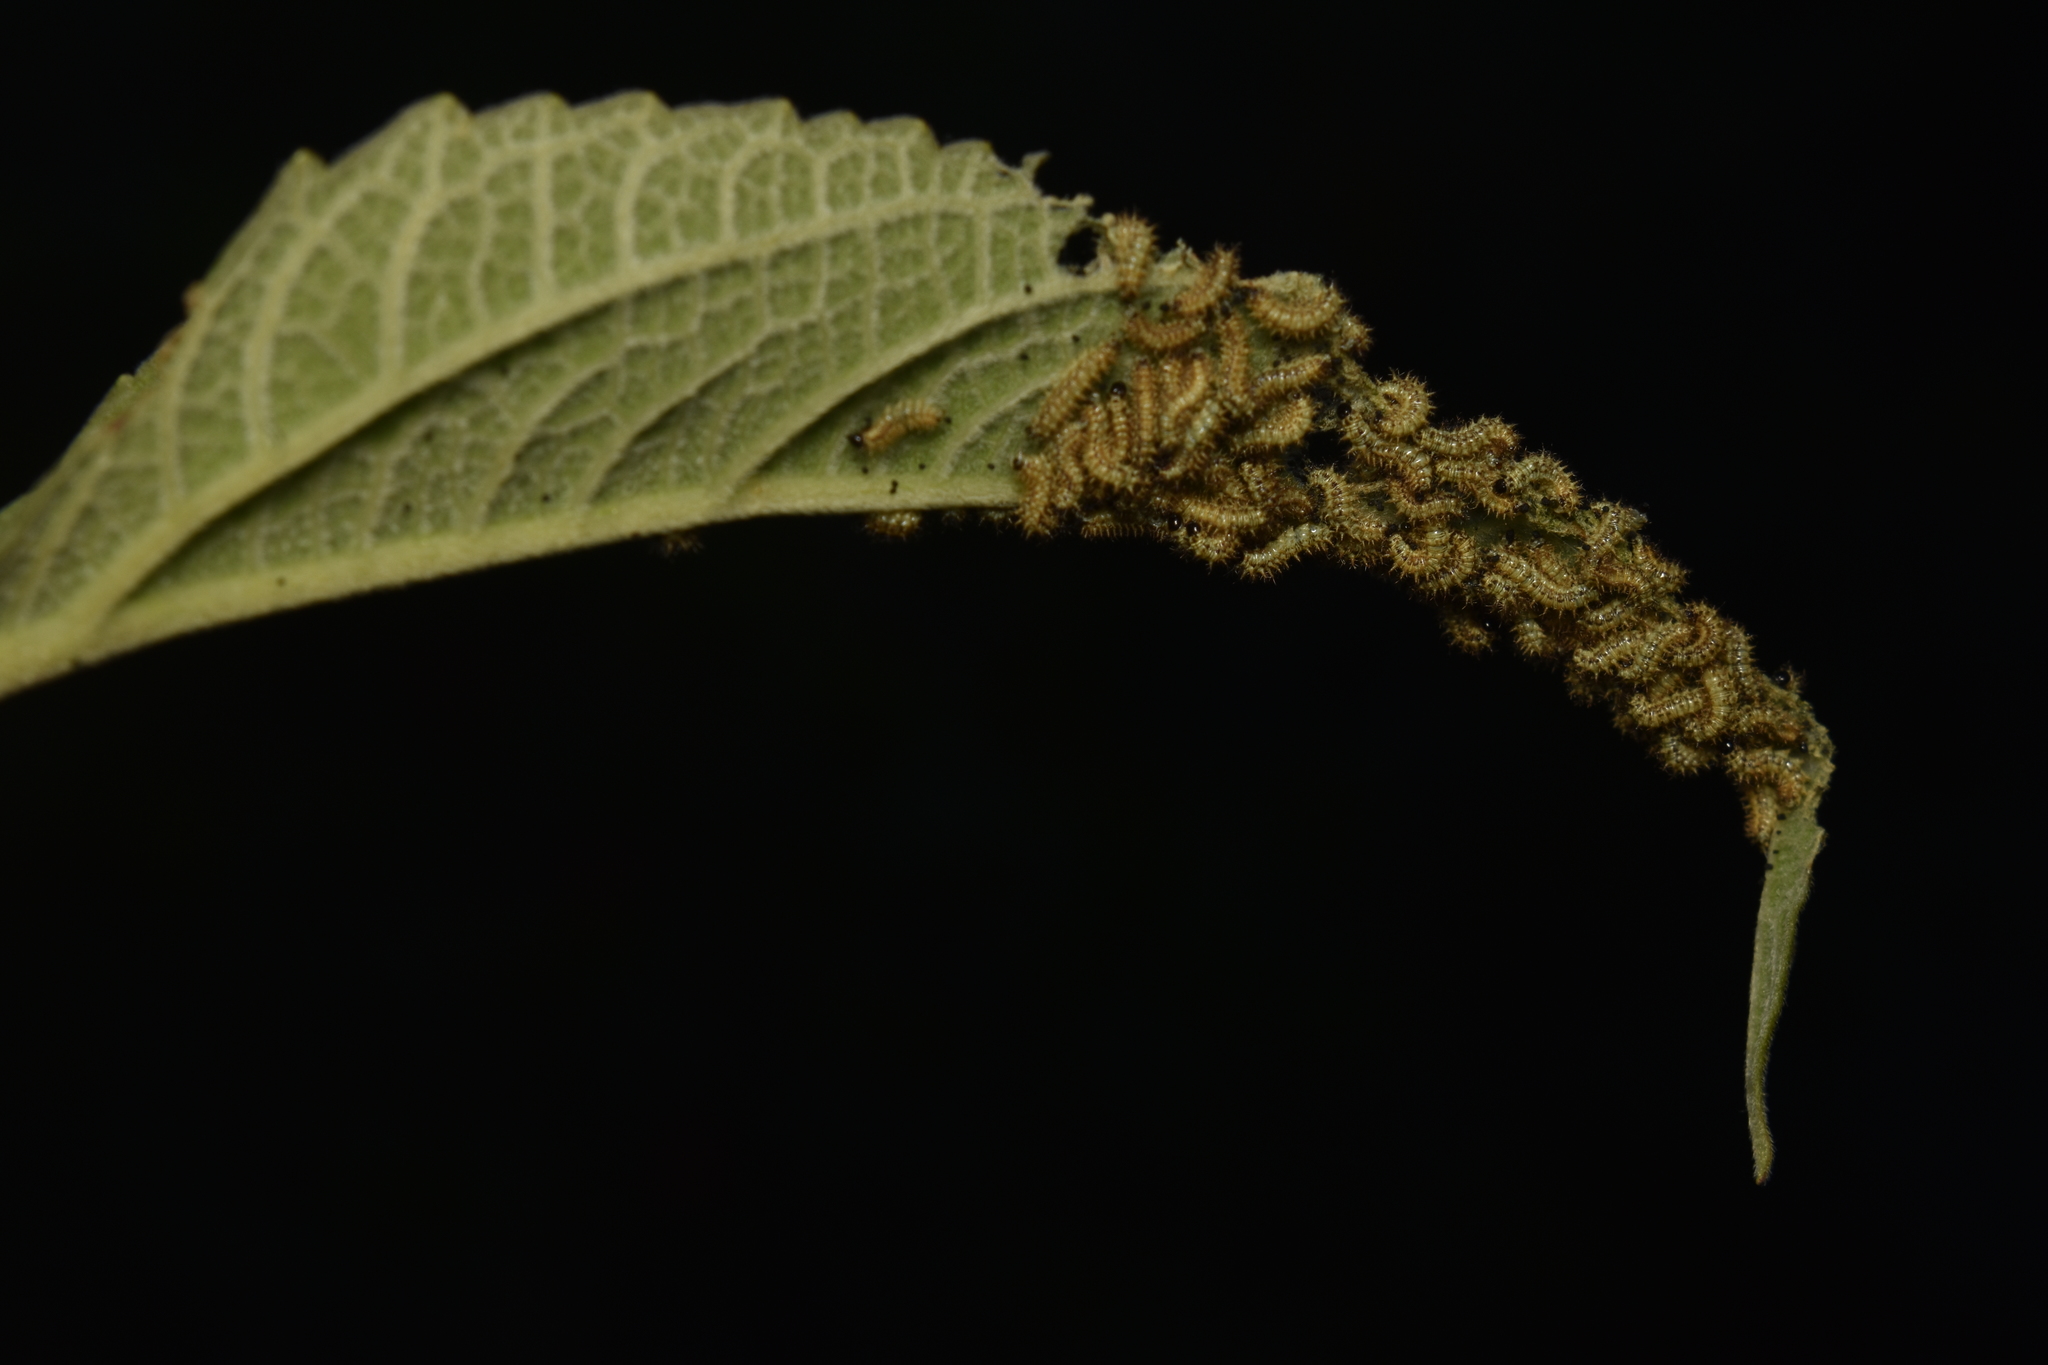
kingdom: Animalia
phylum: Arthropoda
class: Insecta
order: Lepidoptera
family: Nymphalidae
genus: Actinote
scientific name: Actinote
